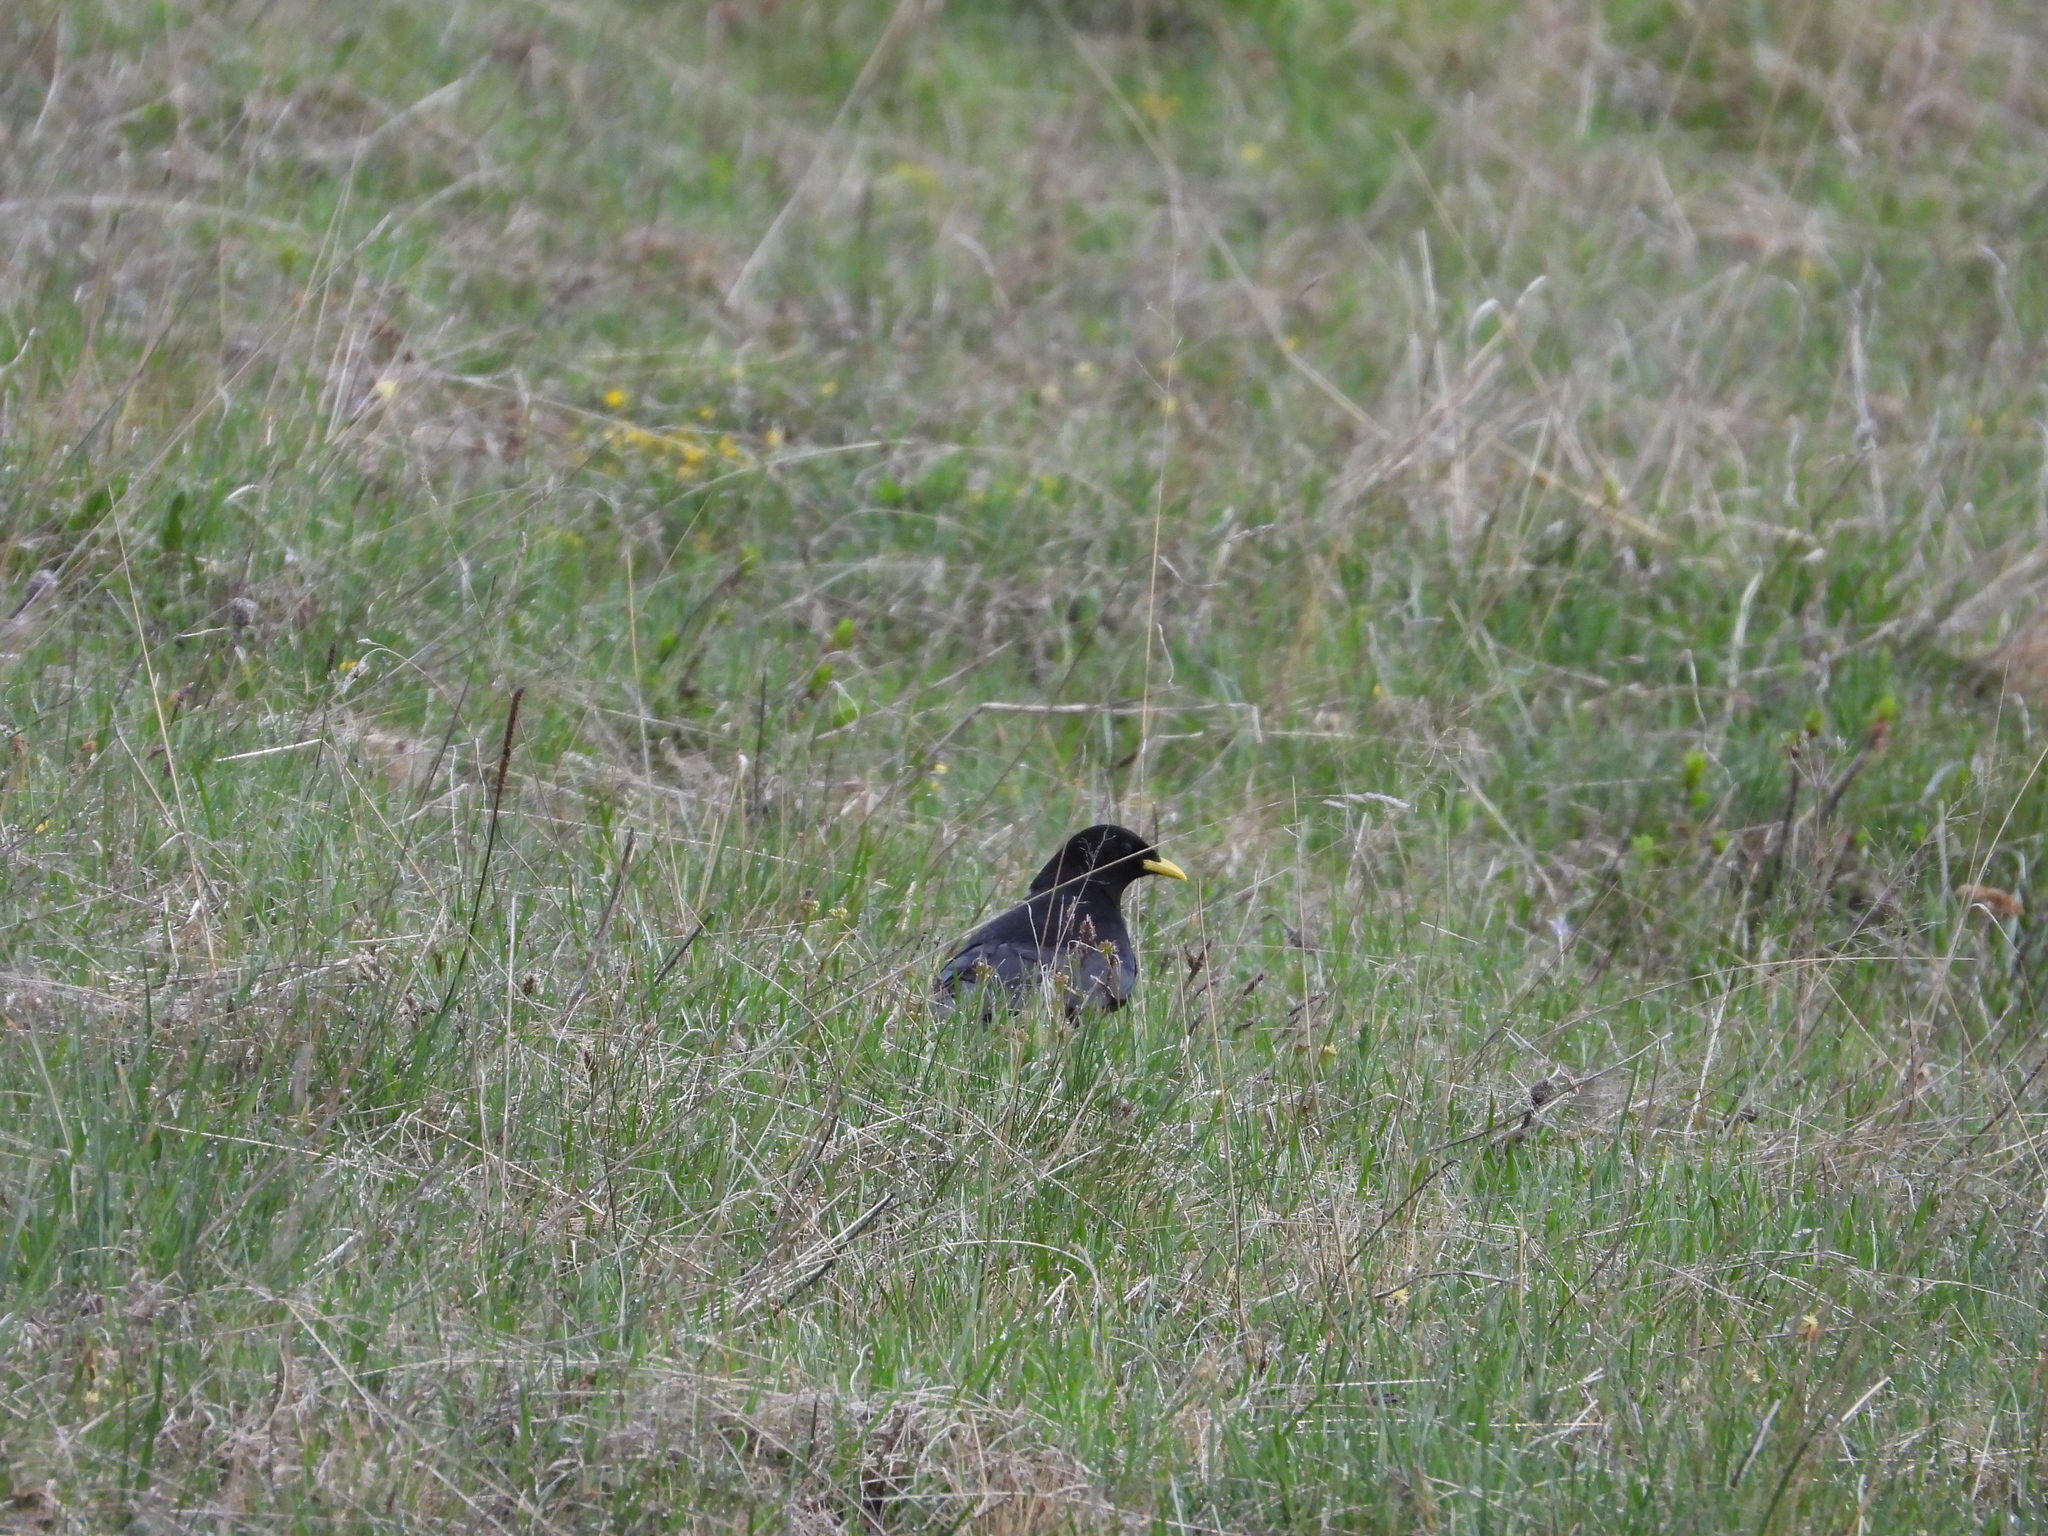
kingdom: Animalia
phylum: Chordata
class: Aves
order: Passeriformes
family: Corvidae
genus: Pyrrhocorax
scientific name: Pyrrhocorax graculus
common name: Alpine chough
